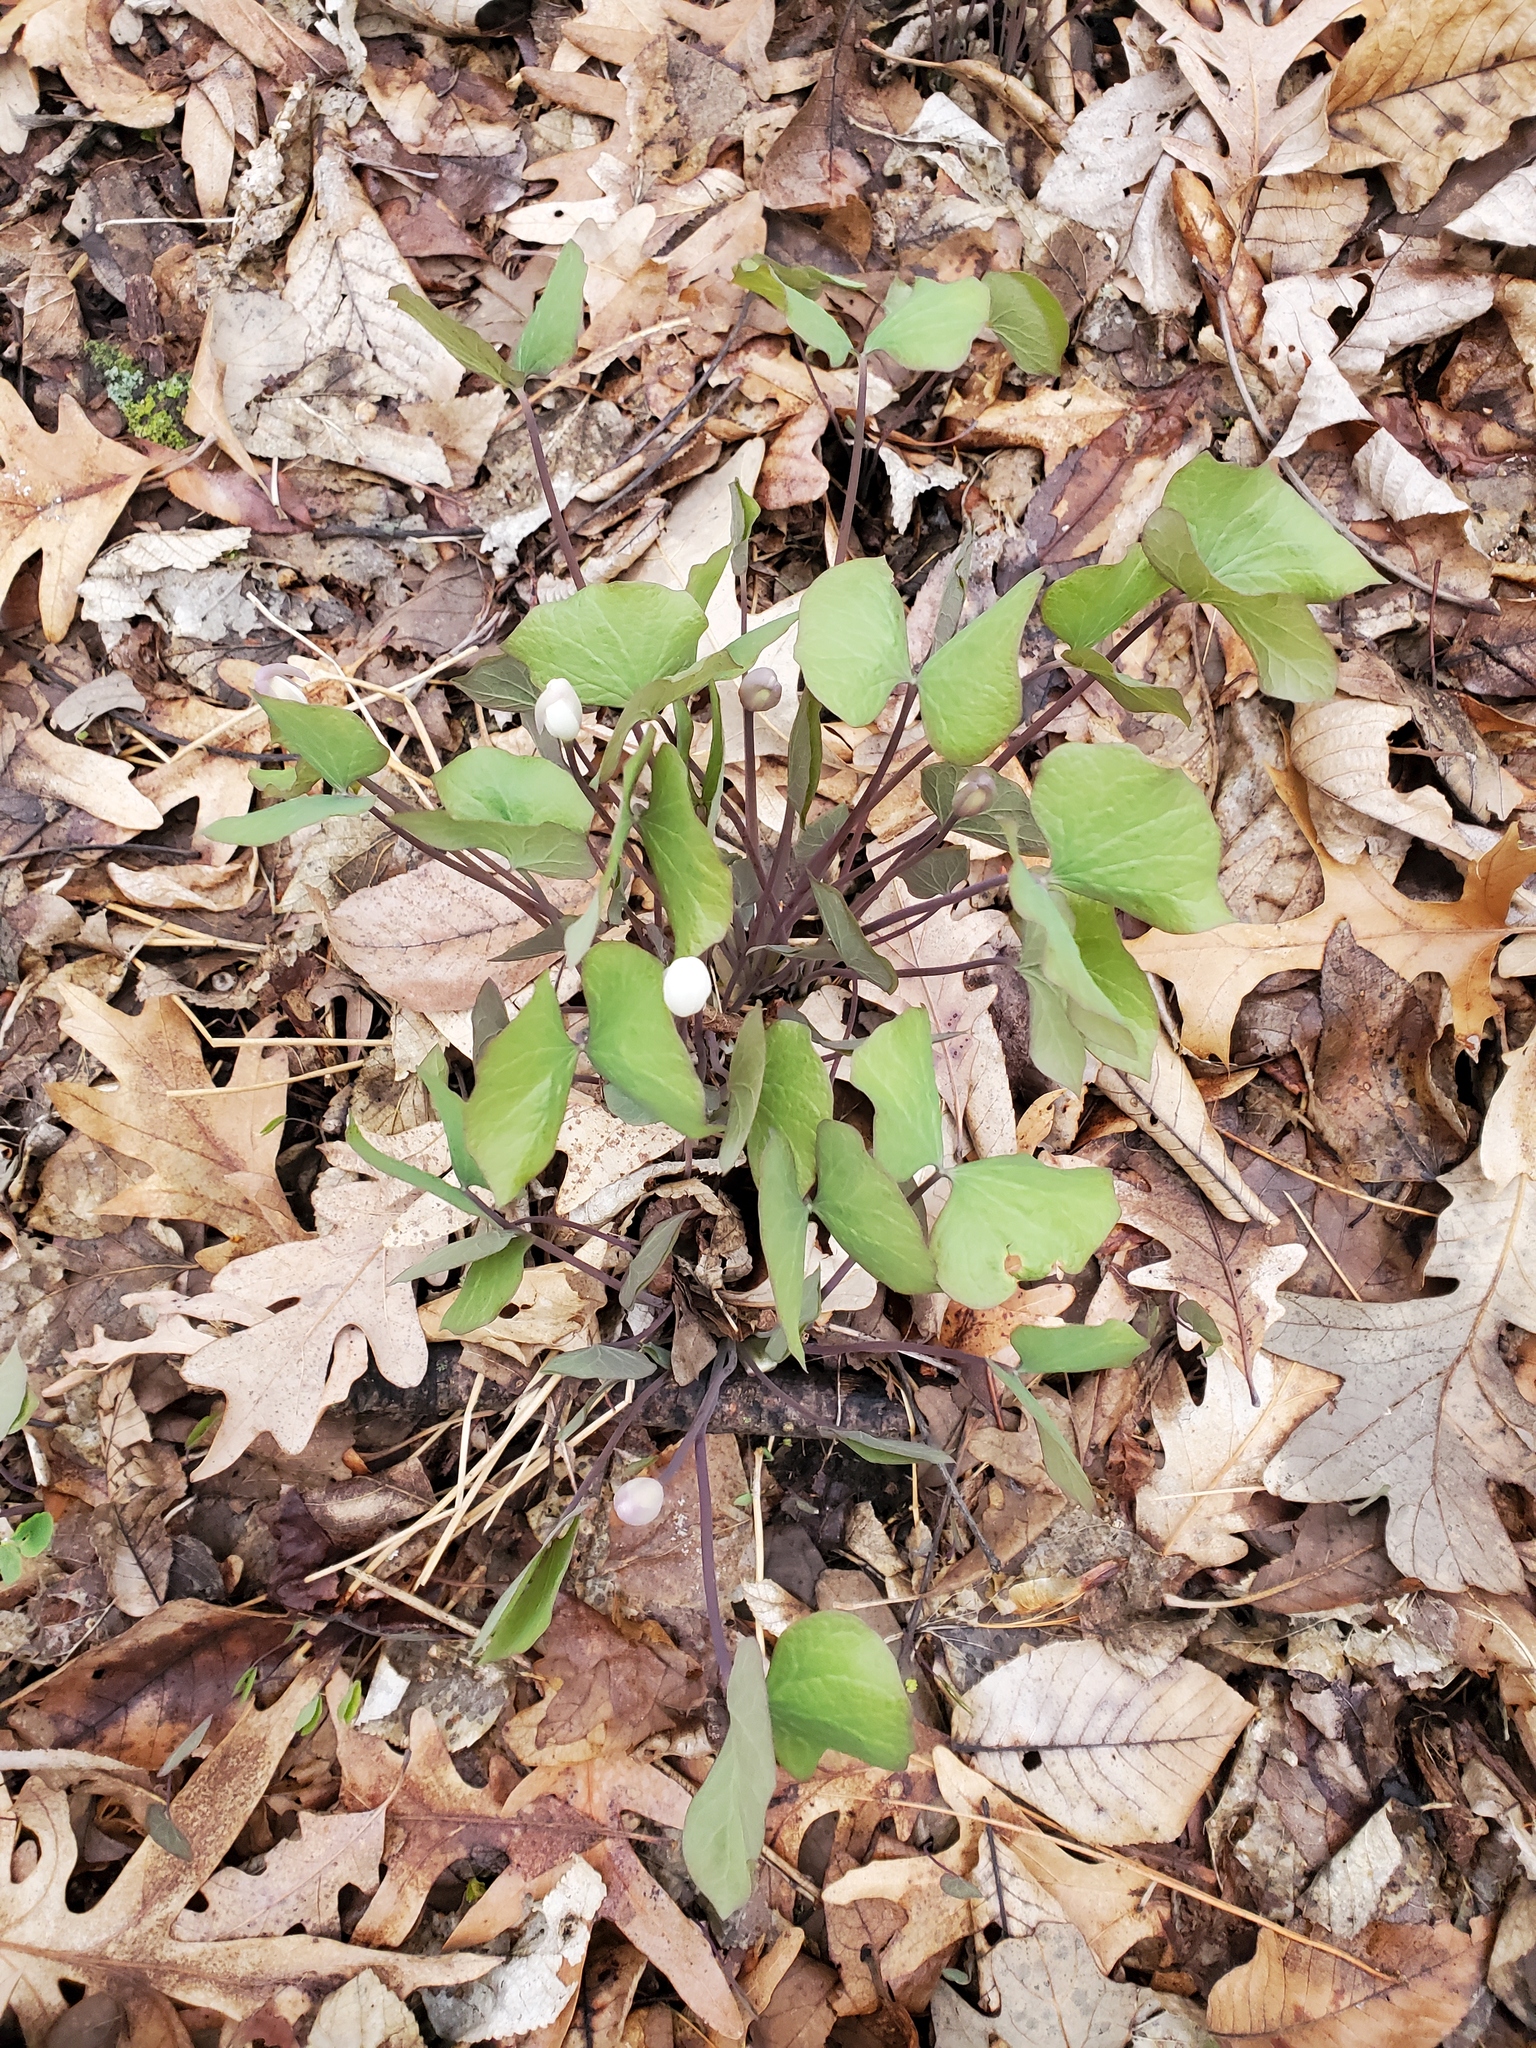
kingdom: Plantae
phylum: Tracheophyta
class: Magnoliopsida
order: Ranunculales
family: Berberidaceae
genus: Jeffersonia
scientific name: Jeffersonia diphylla
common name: Rheumatism-root
